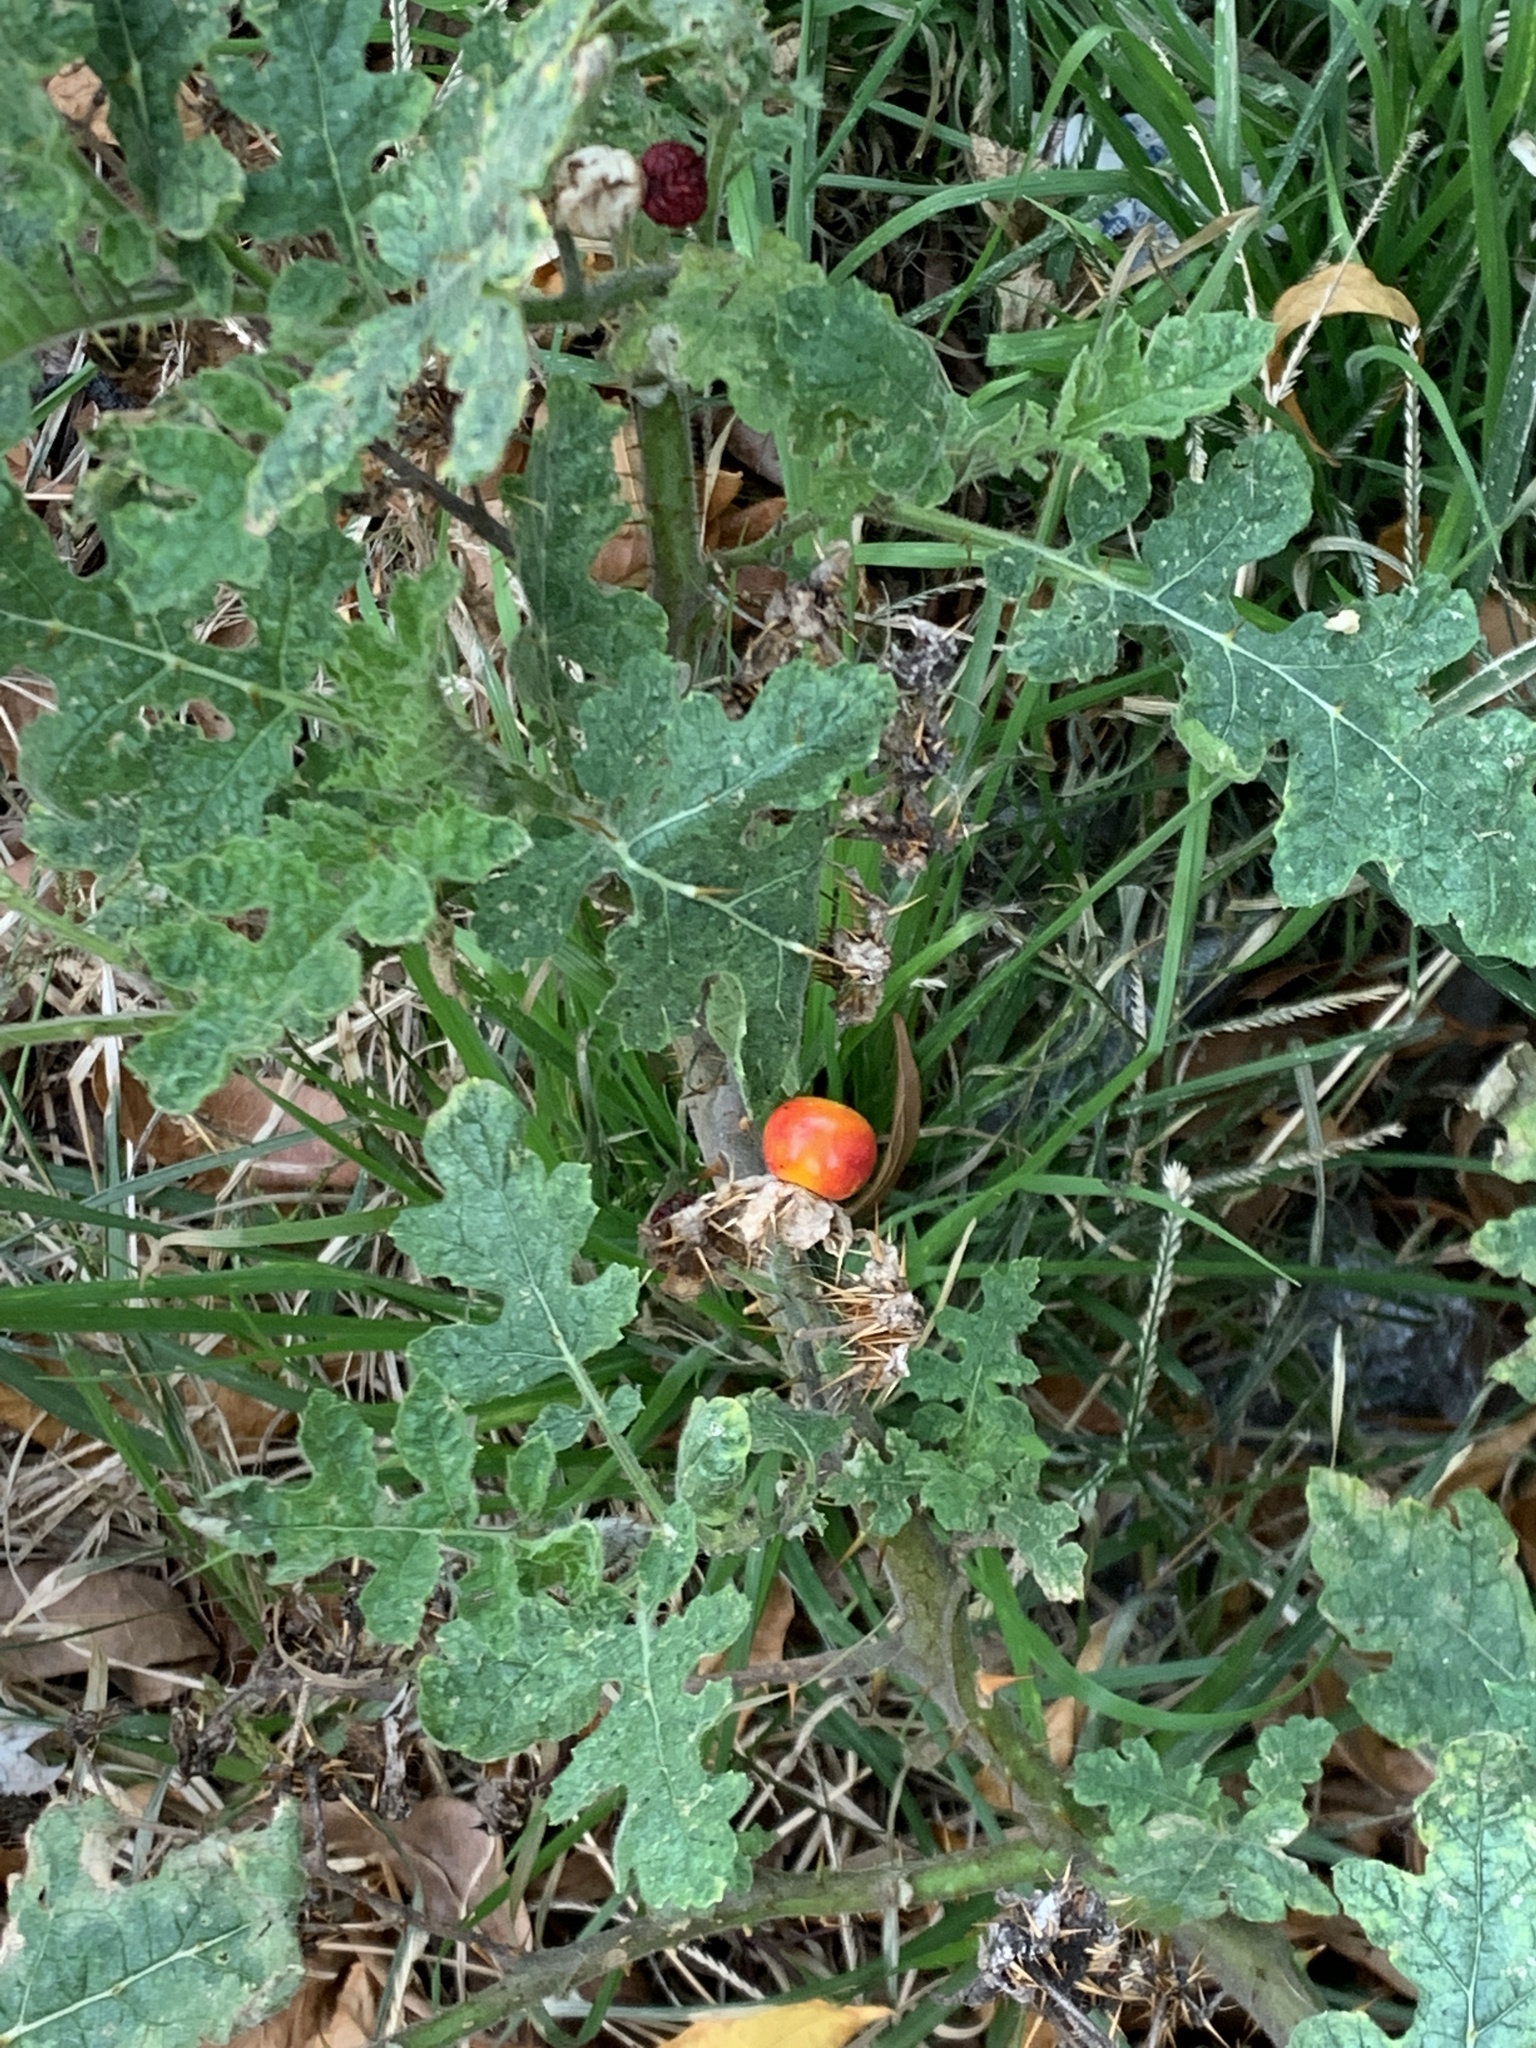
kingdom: Plantae
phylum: Tracheophyta
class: Magnoliopsida
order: Solanales
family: Solanaceae
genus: Solanum
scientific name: Solanum sisymbriifolium
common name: Red buffalo-bur
